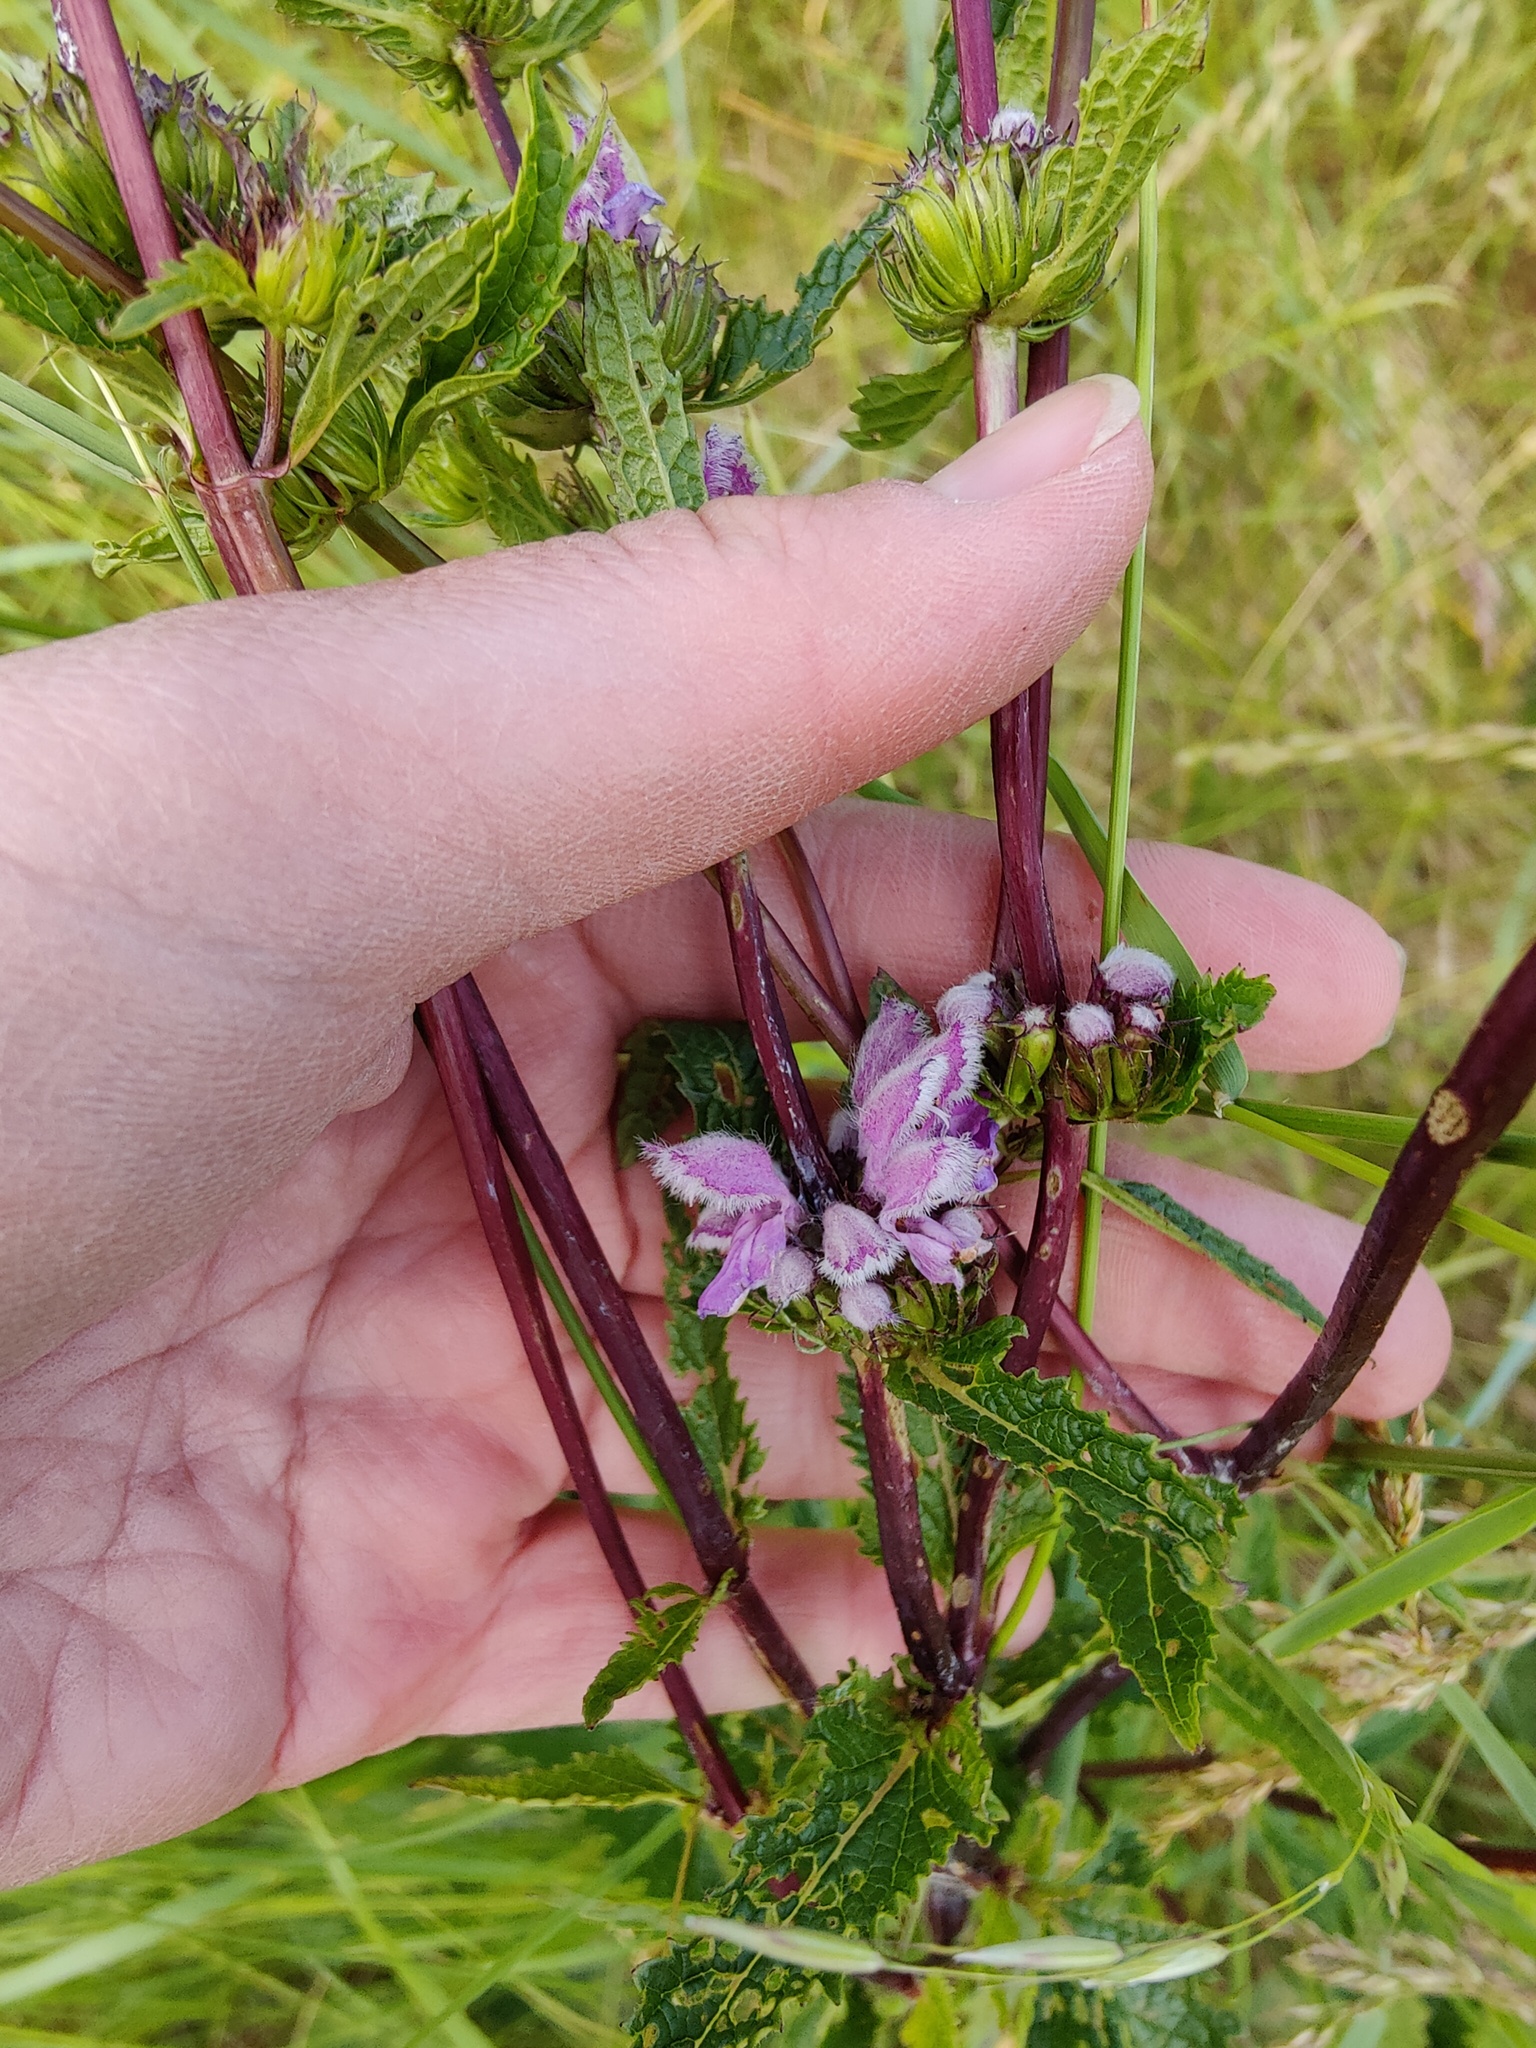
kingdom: Plantae
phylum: Tracheophyta
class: Magnoliopsida
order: Lamiales
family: Lamiaceae
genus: Phlomoides
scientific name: Phlomoides tuberosa
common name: Tuberous jerusalem sage
